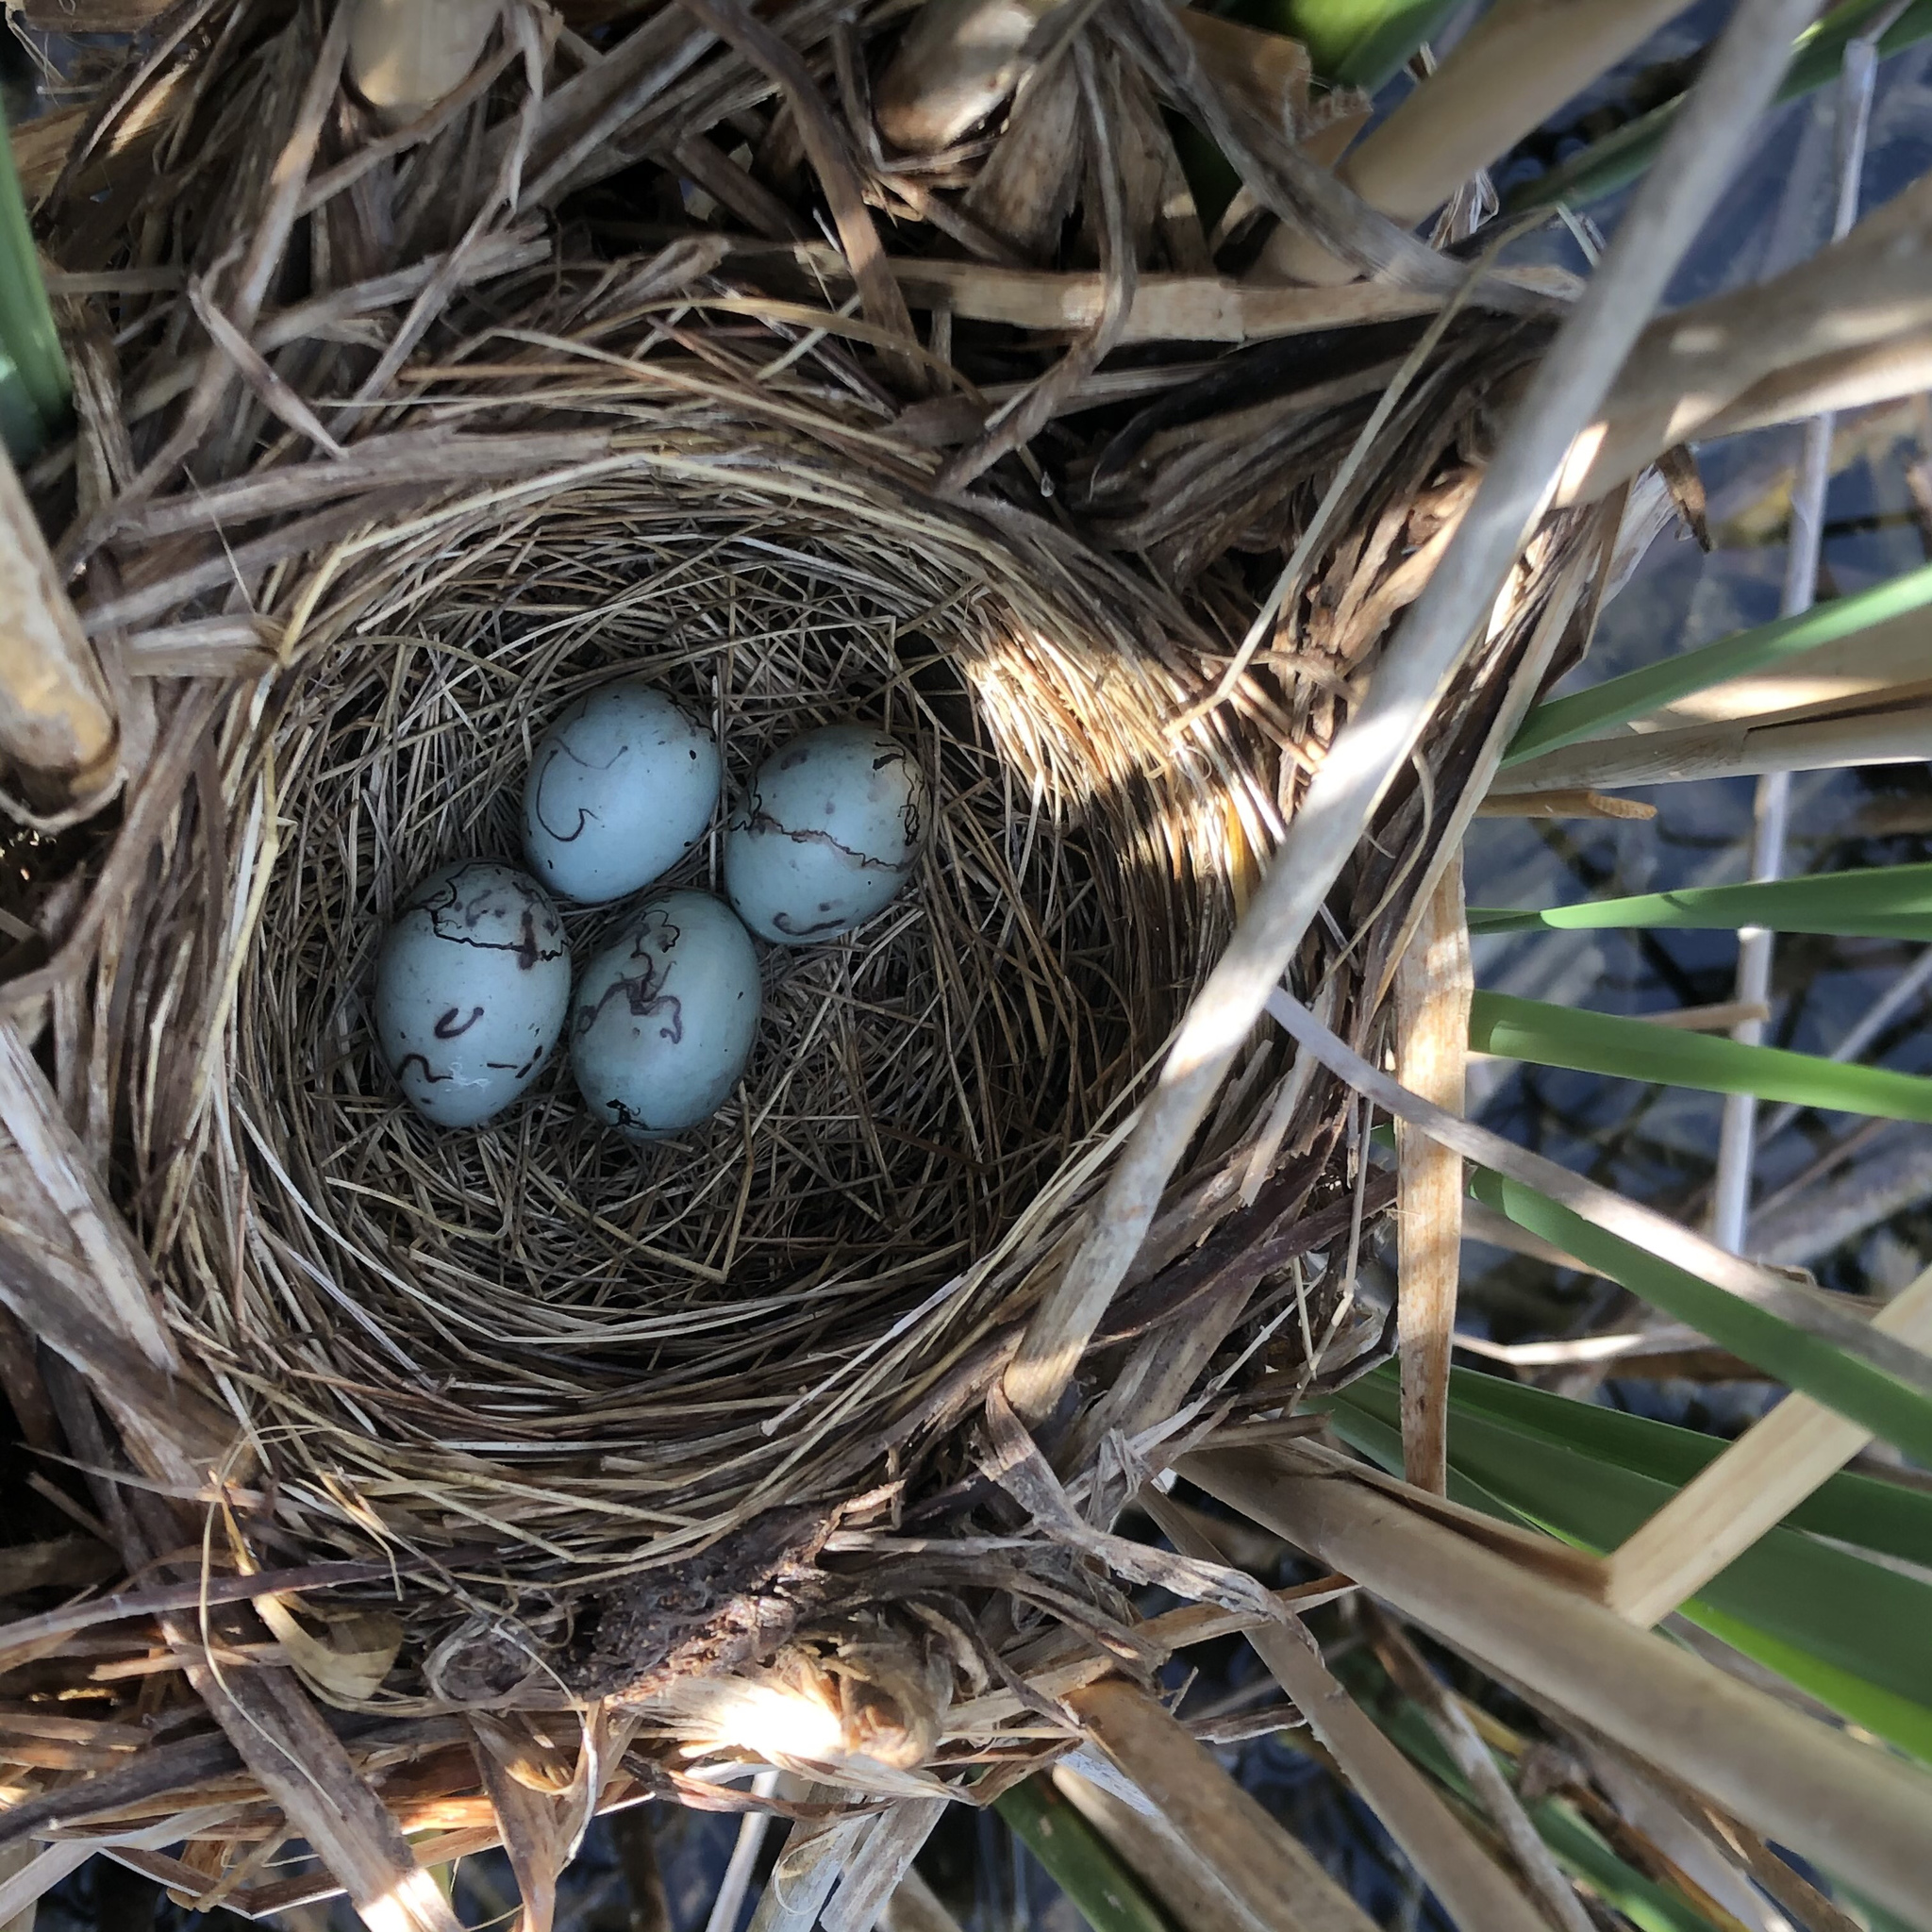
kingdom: Animalia
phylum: Chordata
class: Aves
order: Passeriformes
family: Icteridae
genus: Agelaius
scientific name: Agelaius phoeniceus
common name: Red-winged blackbird
